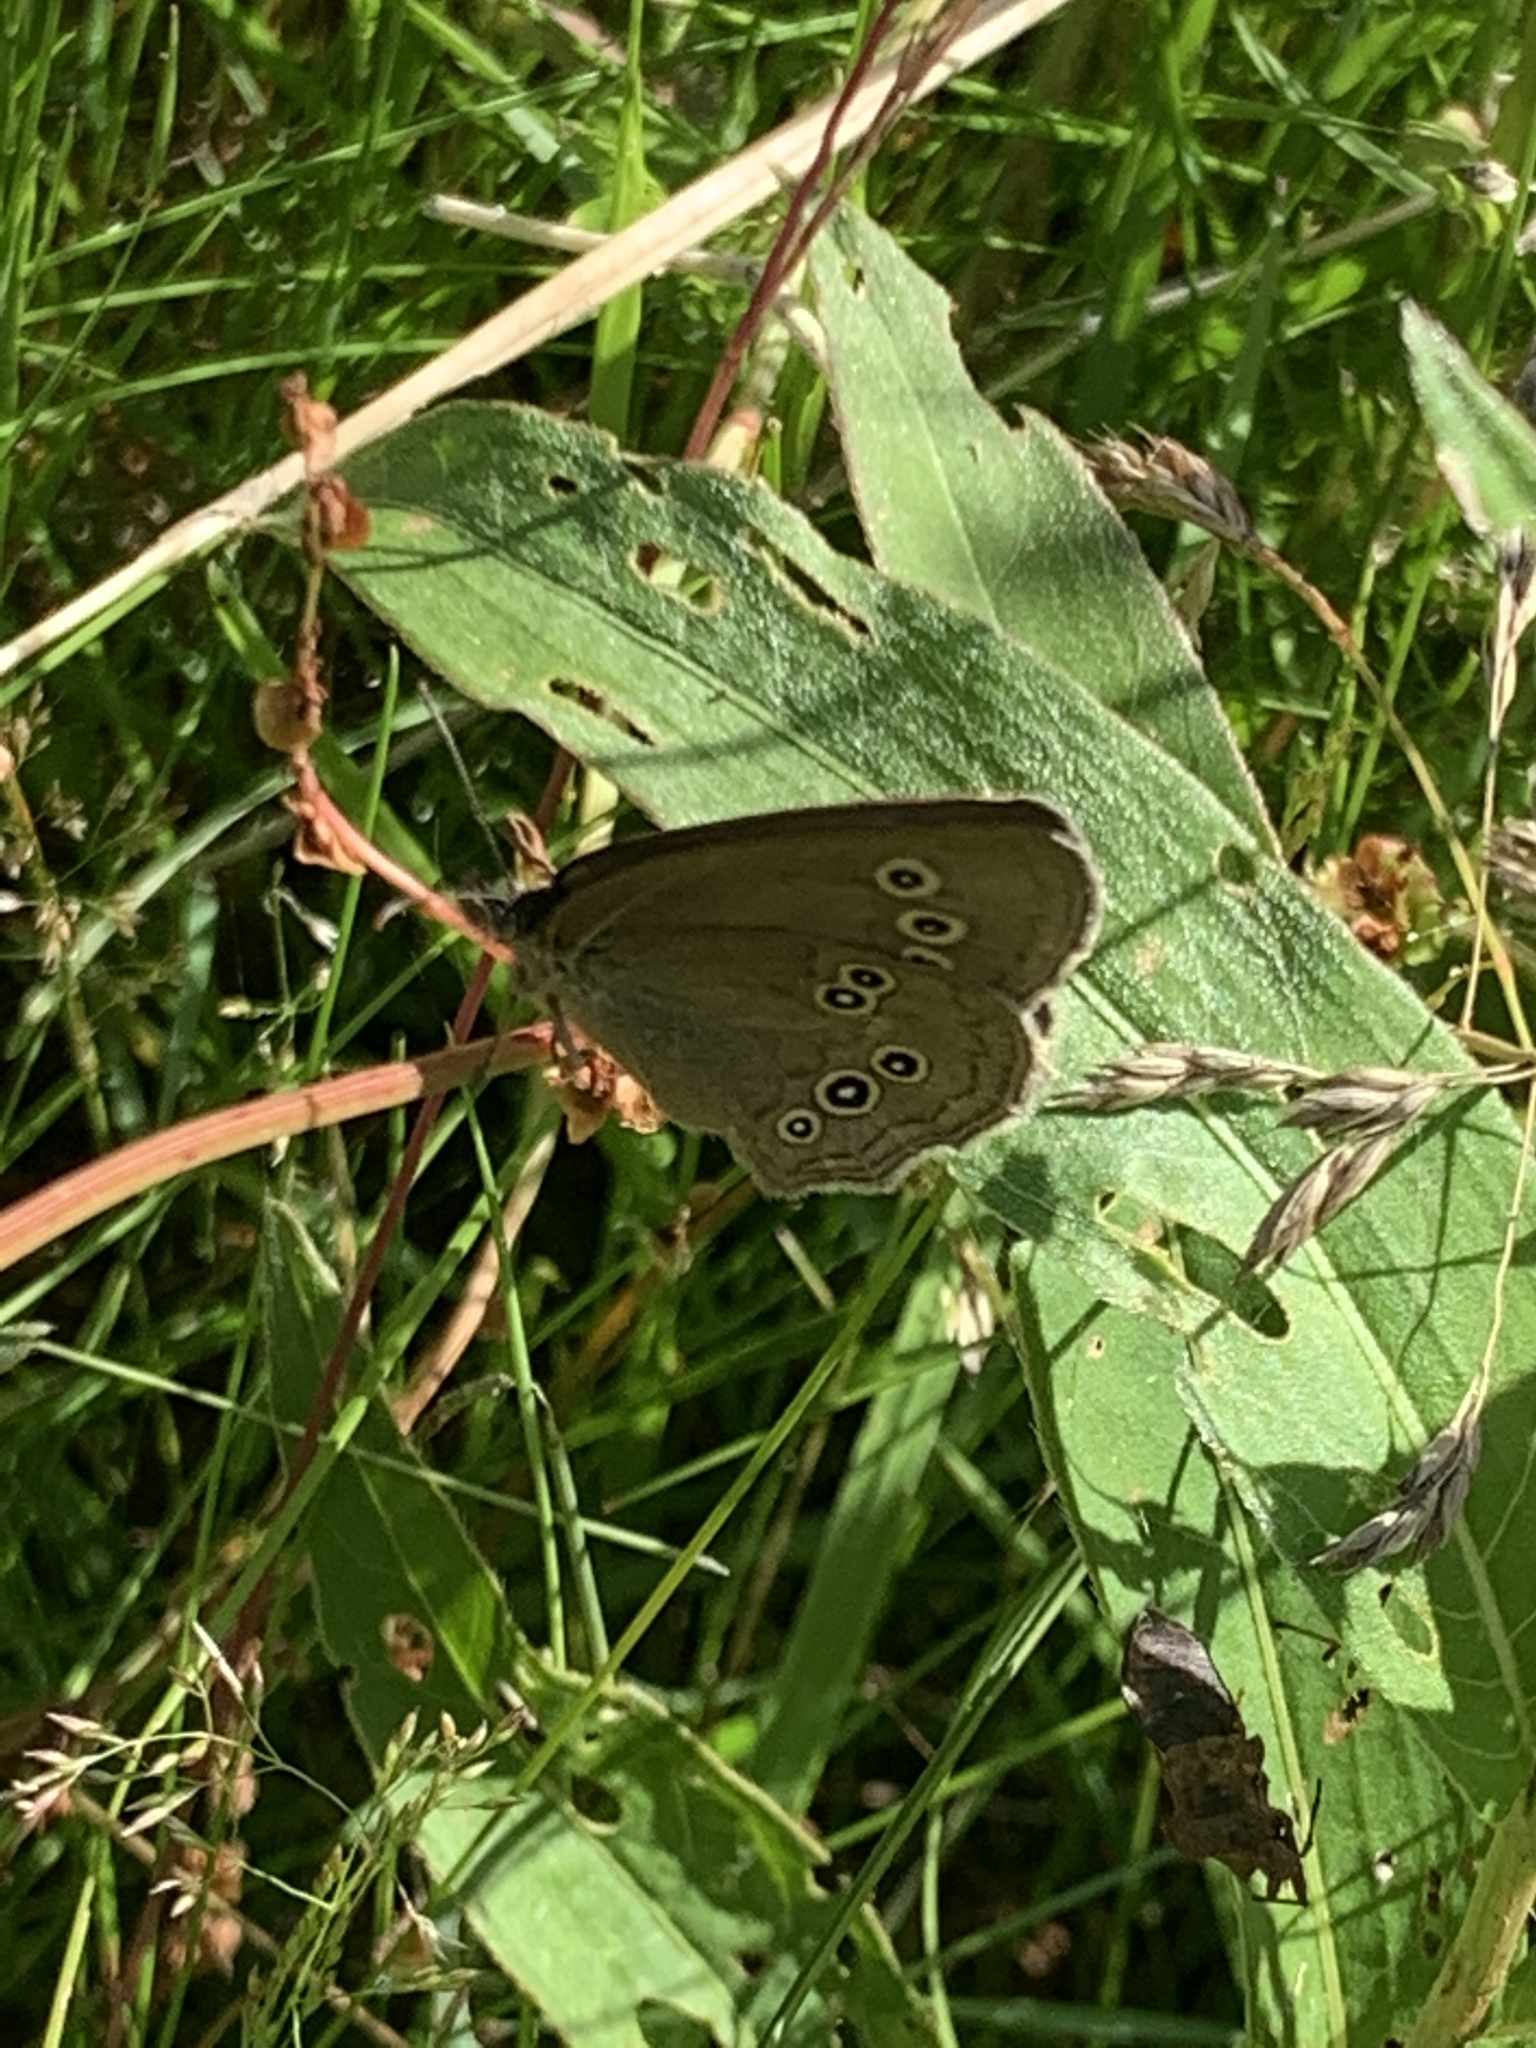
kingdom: Animalia
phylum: Arthropoda
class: Insecta
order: Lepidoptera
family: Nymphalidae
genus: Aphantopus
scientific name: Aphantopus hyperantus
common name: Ringlet
